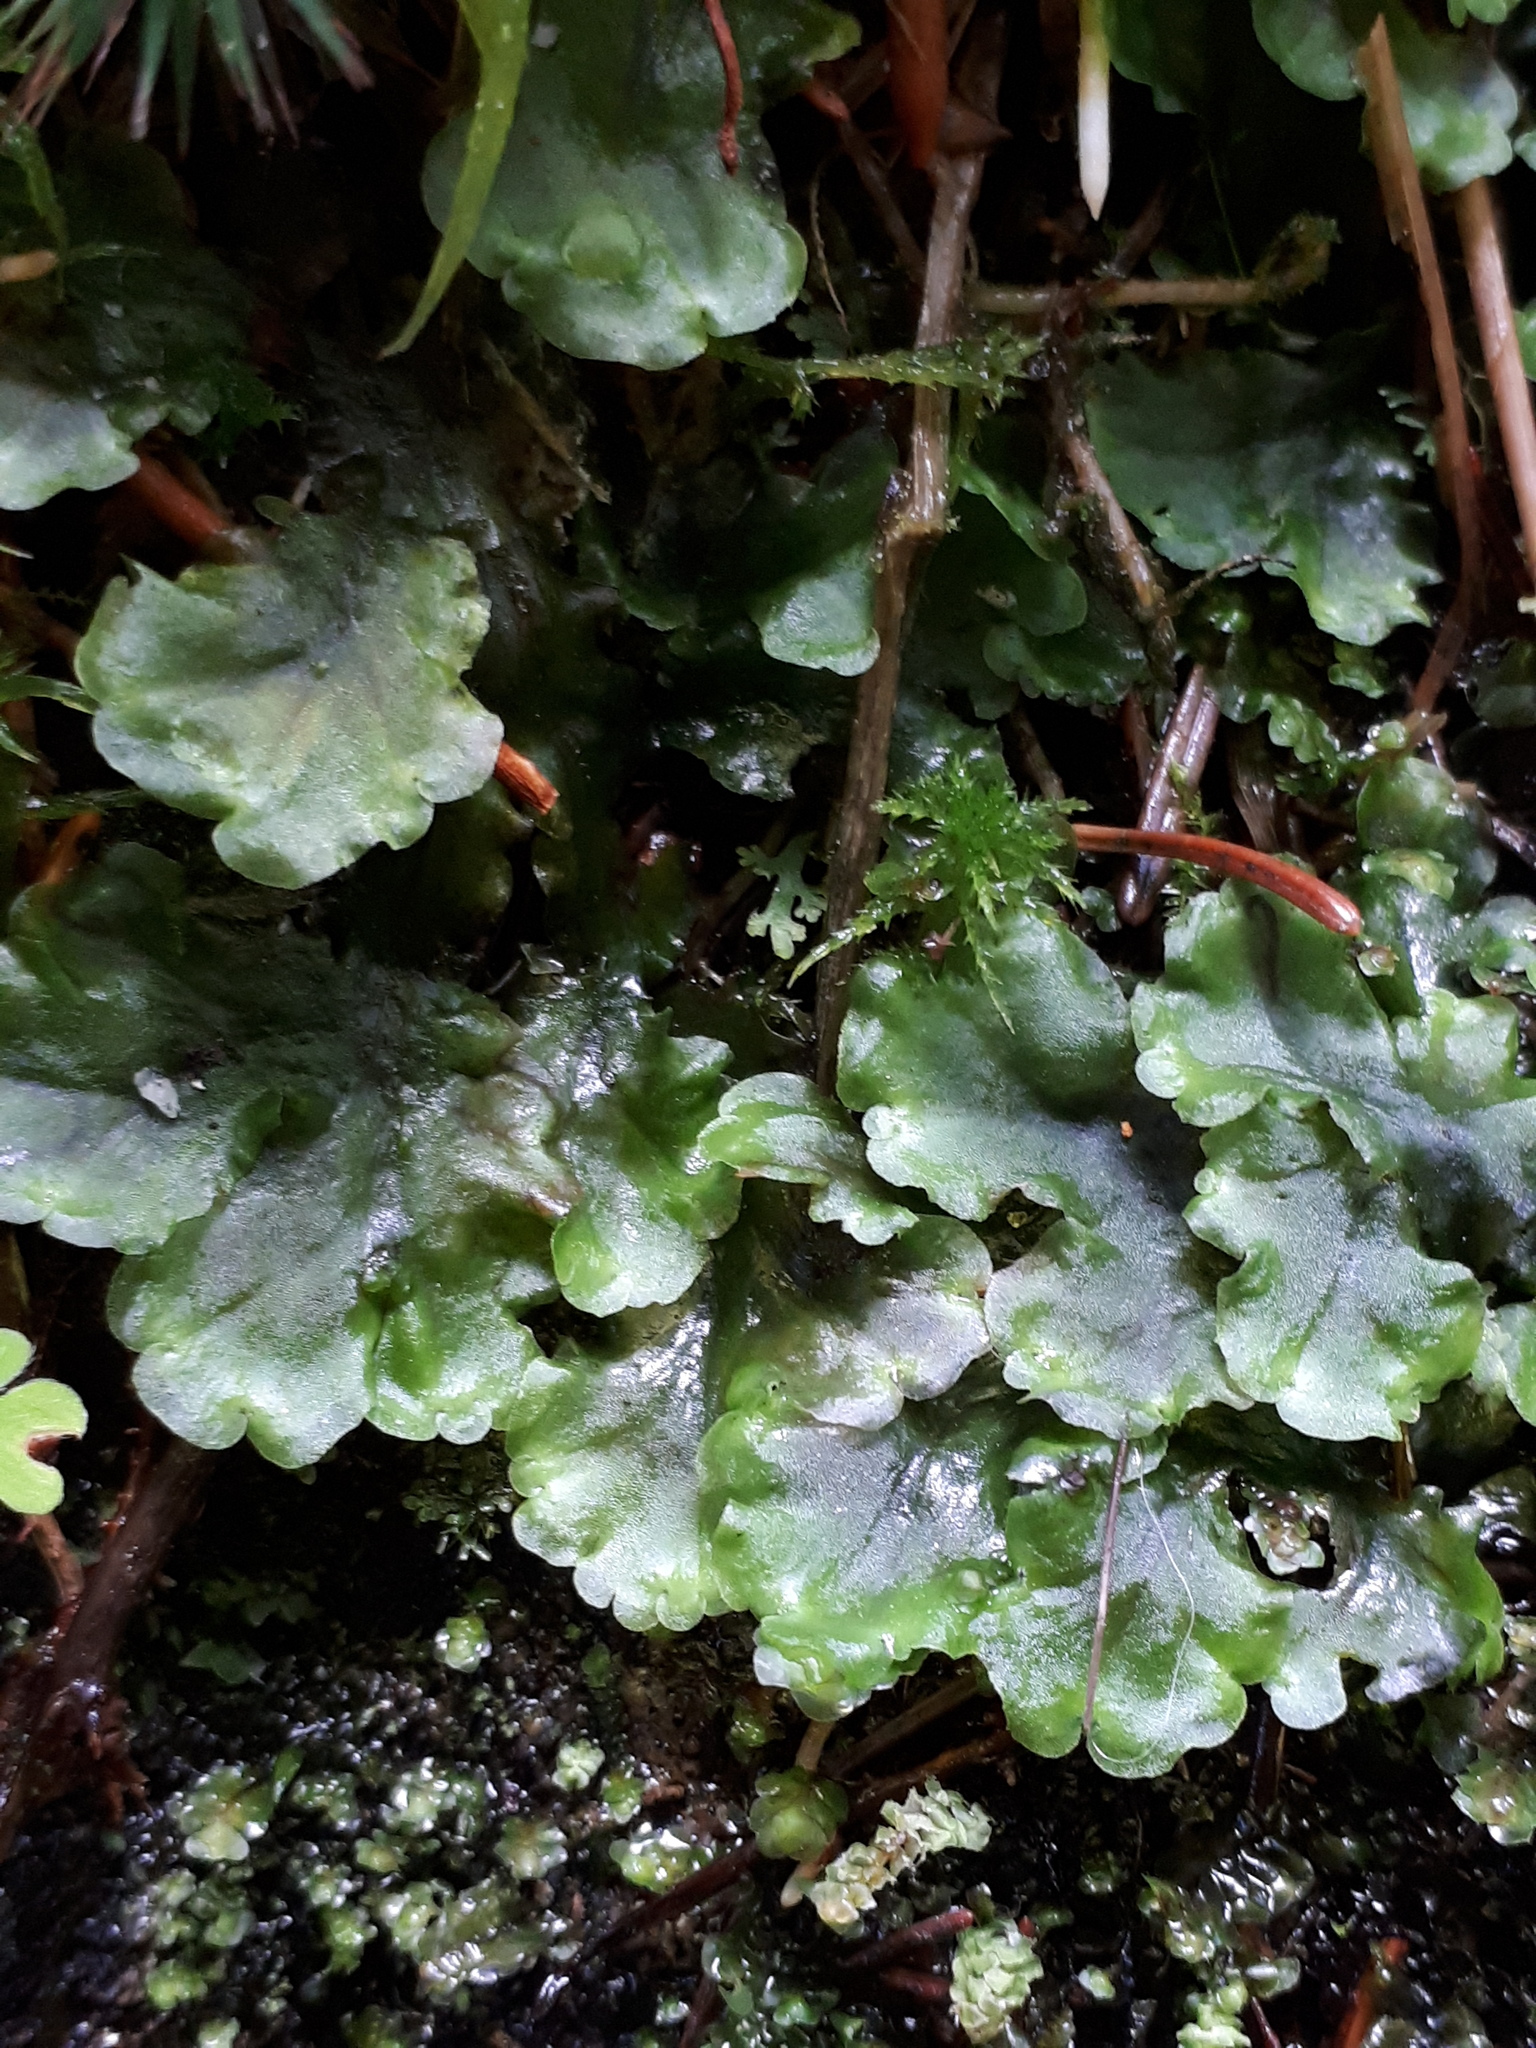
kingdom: Plantae
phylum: Marchantiophyta
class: Jungermanniopsida
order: Pelliales
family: Pelliaceae
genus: Pellia
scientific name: Pellia epiphylla
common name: Common pellia
